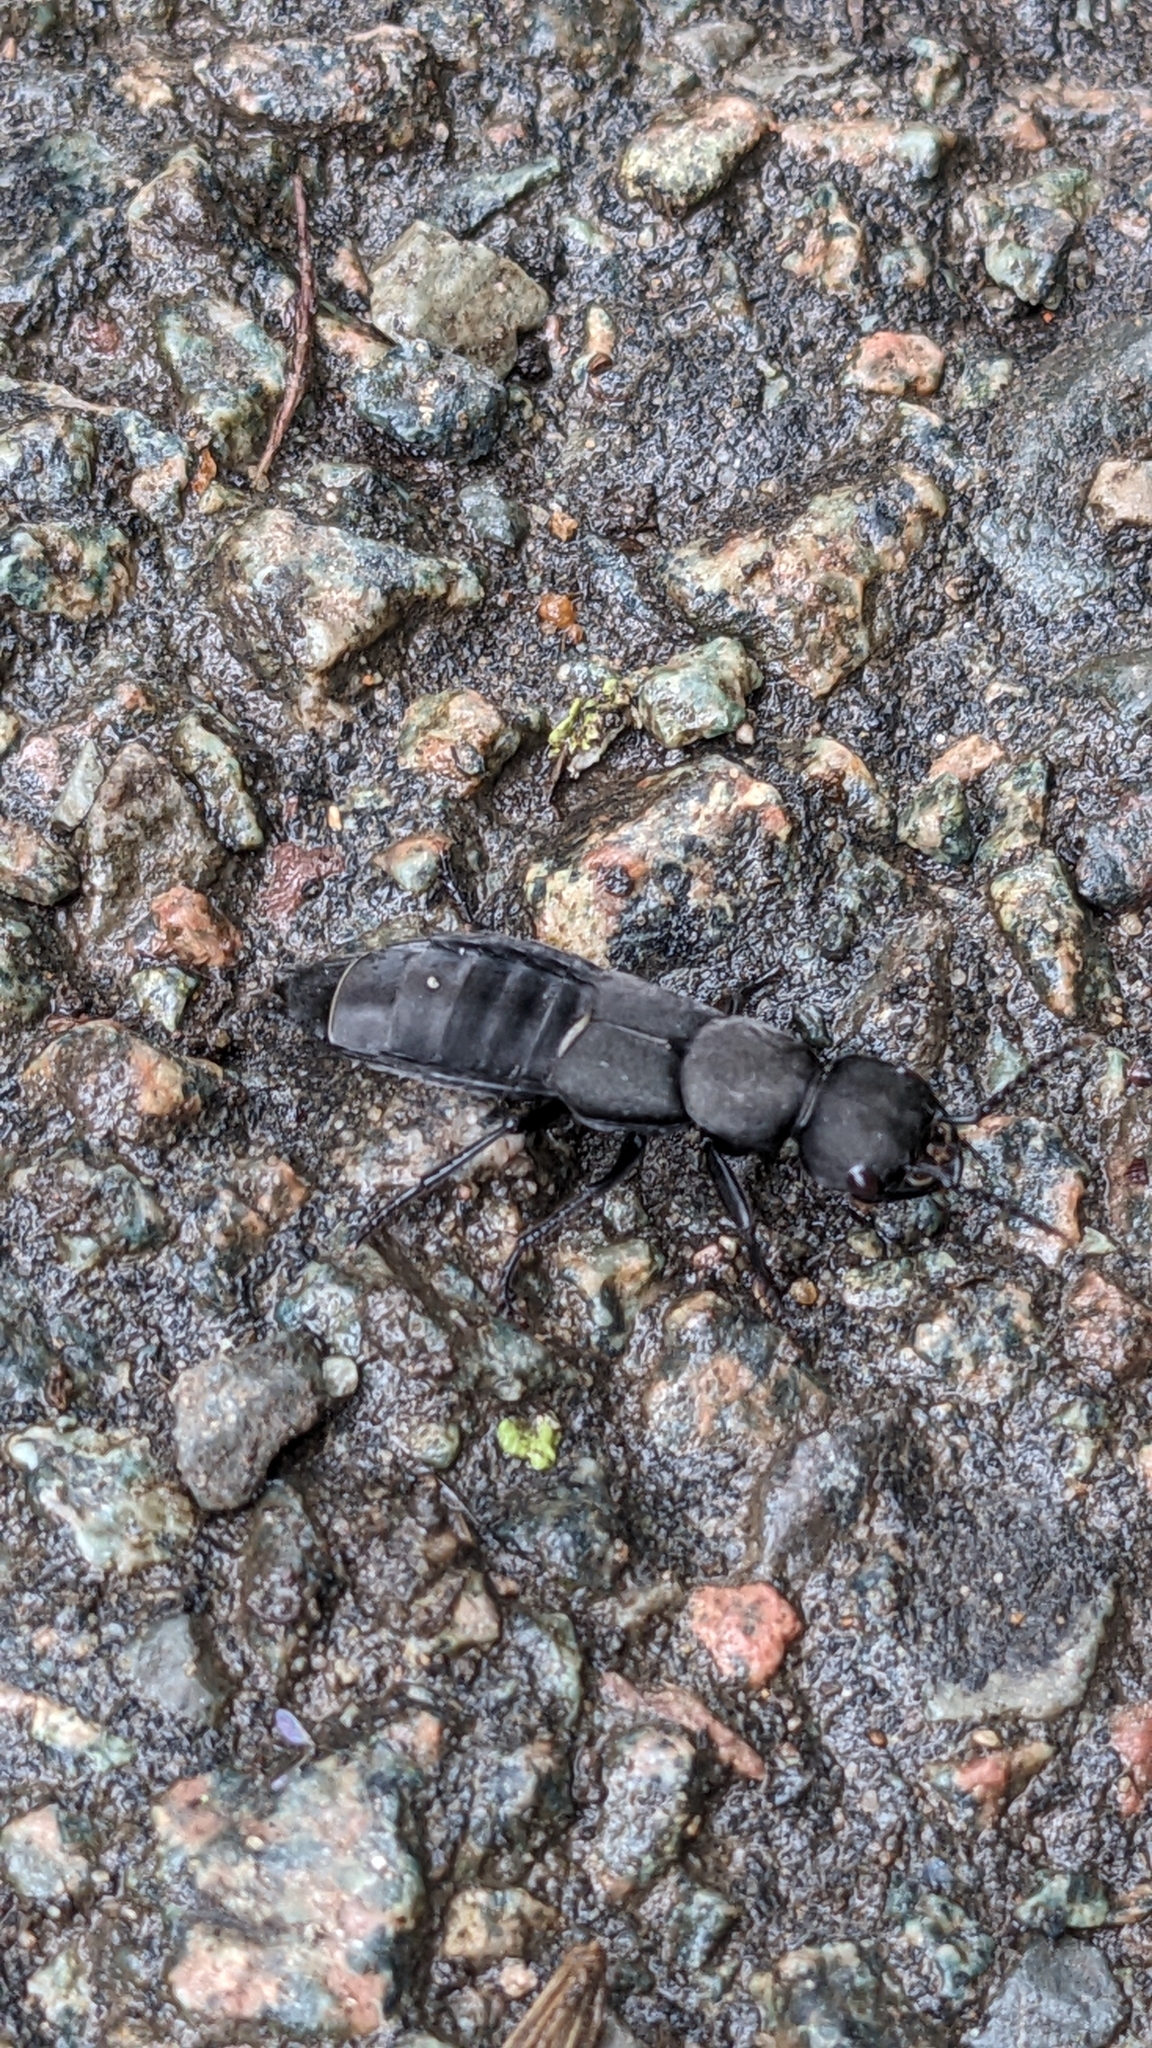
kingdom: Animalia
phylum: Arthropoda
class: Insecta
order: Coleoptera
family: Staphylinidae
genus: Ocypus
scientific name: Ocypus olens
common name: Devil's coach-horse
